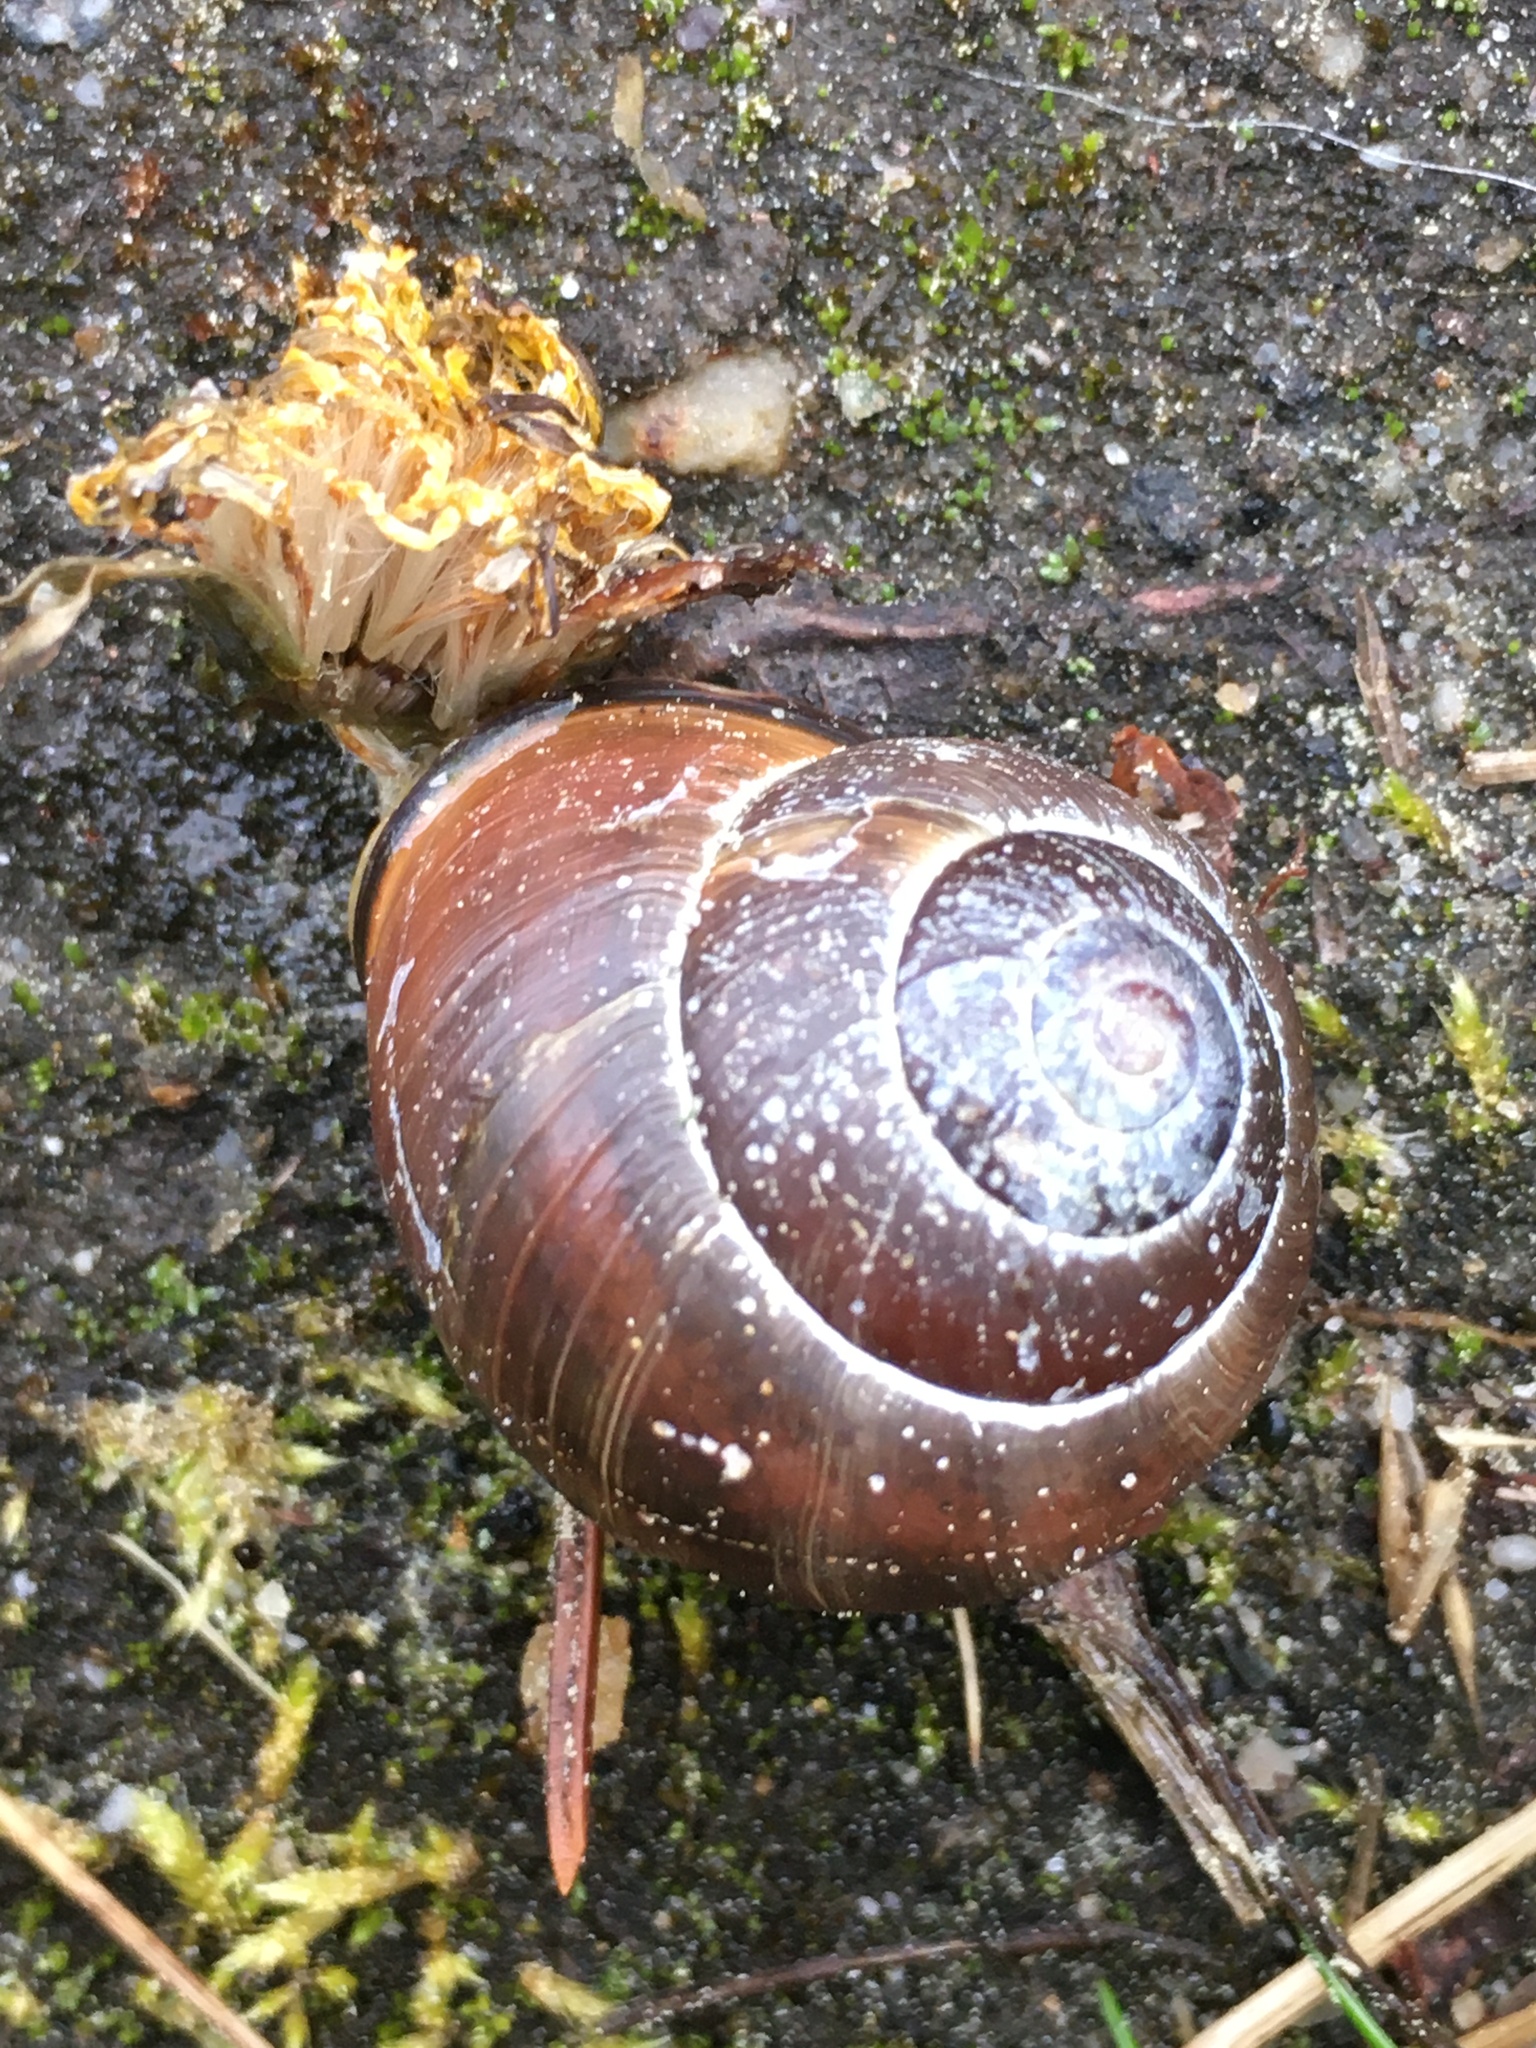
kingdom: Animalia
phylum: Mollusca
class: Gastropoda
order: Stylommatophora
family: Helicidae
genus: Cepaea
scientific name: Cepaea nemoralis
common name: Grovesnail
